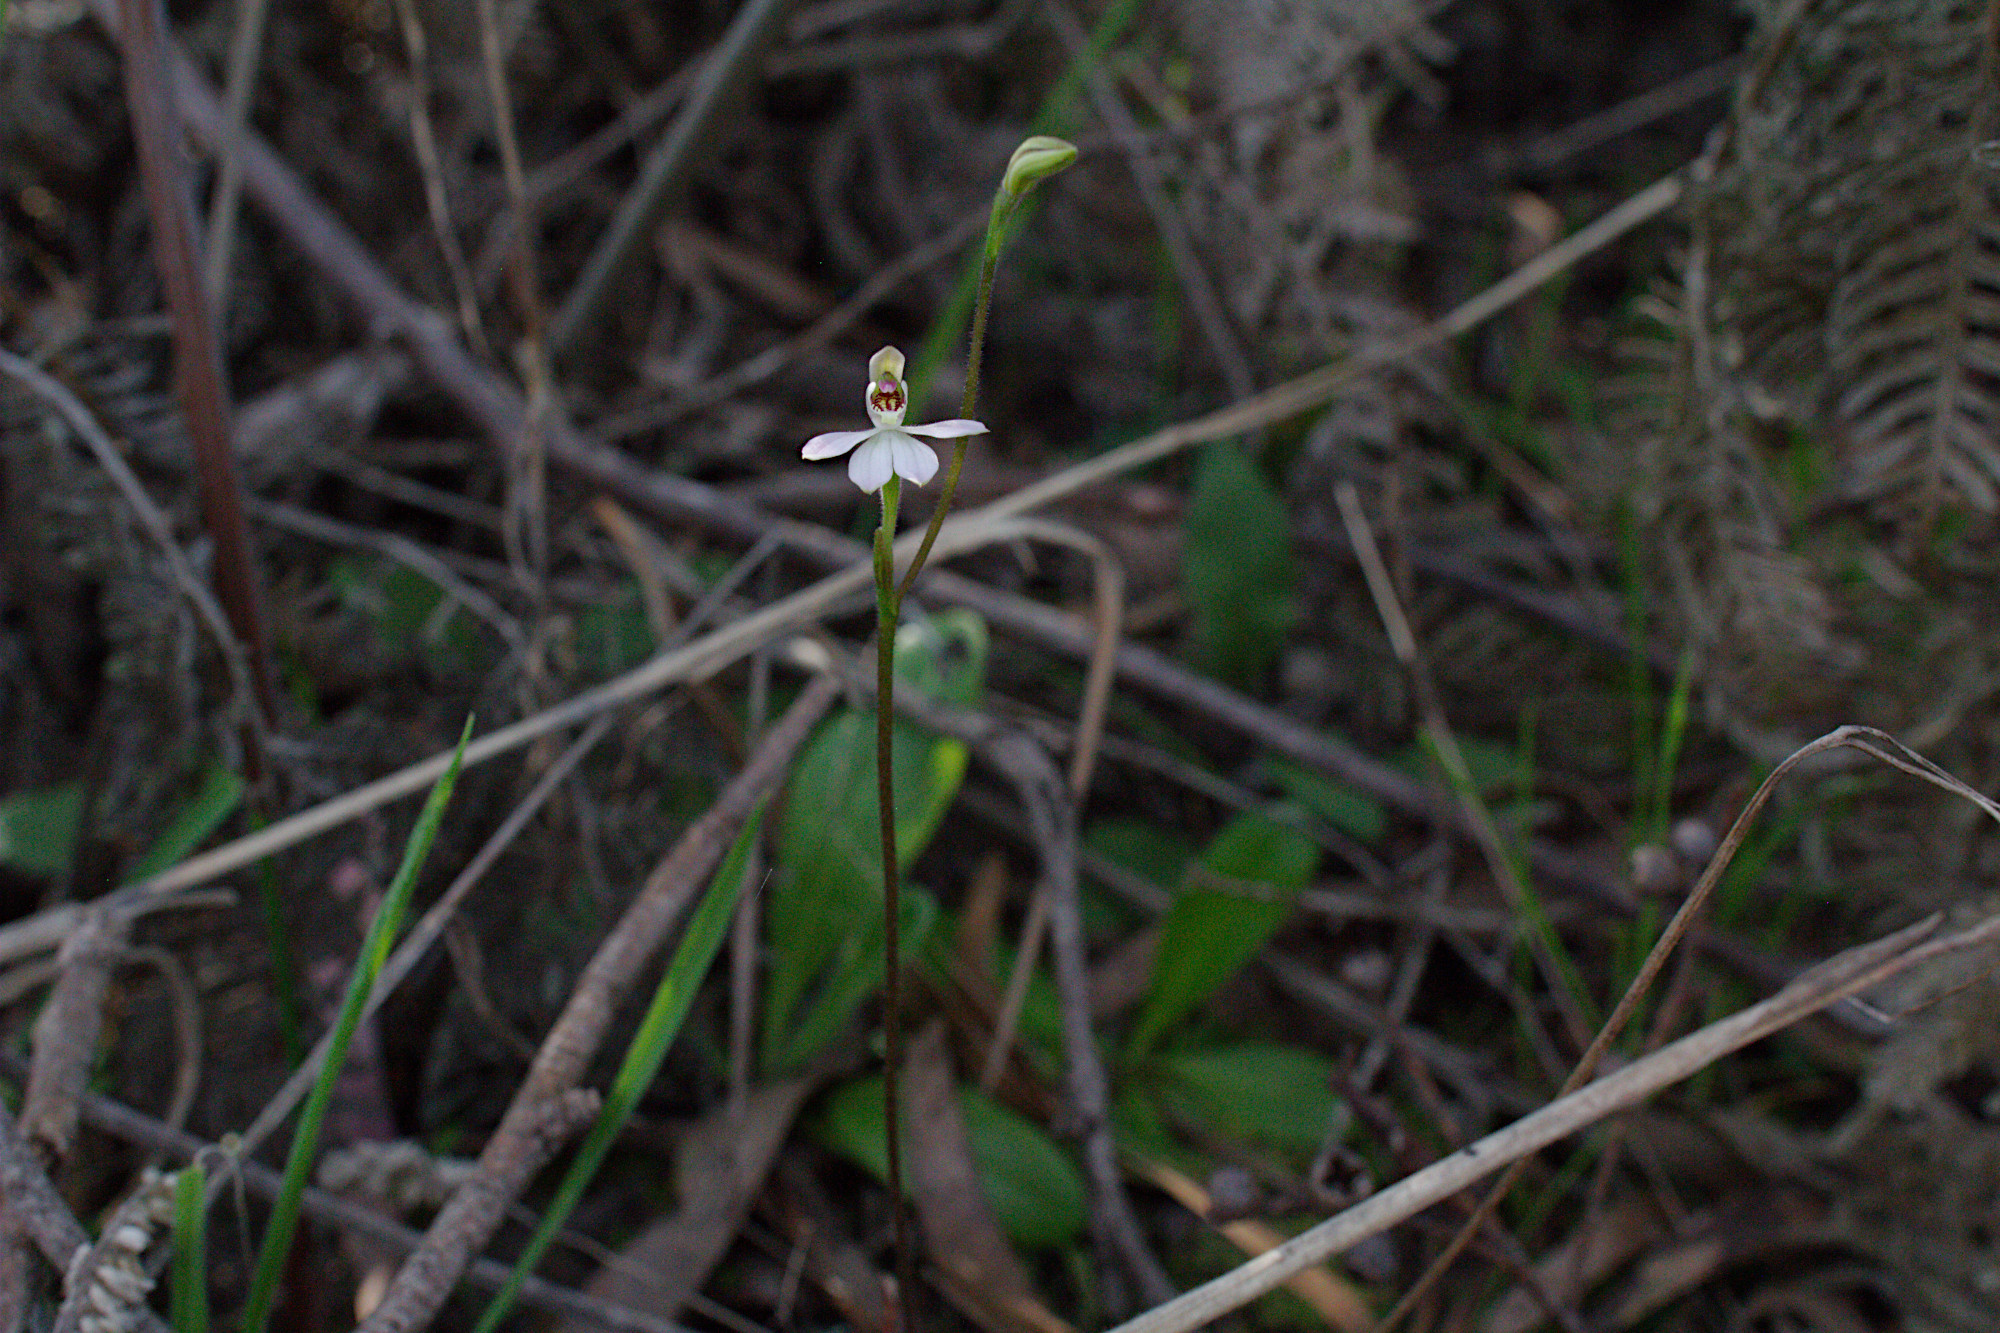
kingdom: Plantae
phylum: Tracheophyta
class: Liliopsida
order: Asparagales
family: Orchidaceae
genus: Caladenia
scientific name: Caladenia carnea
